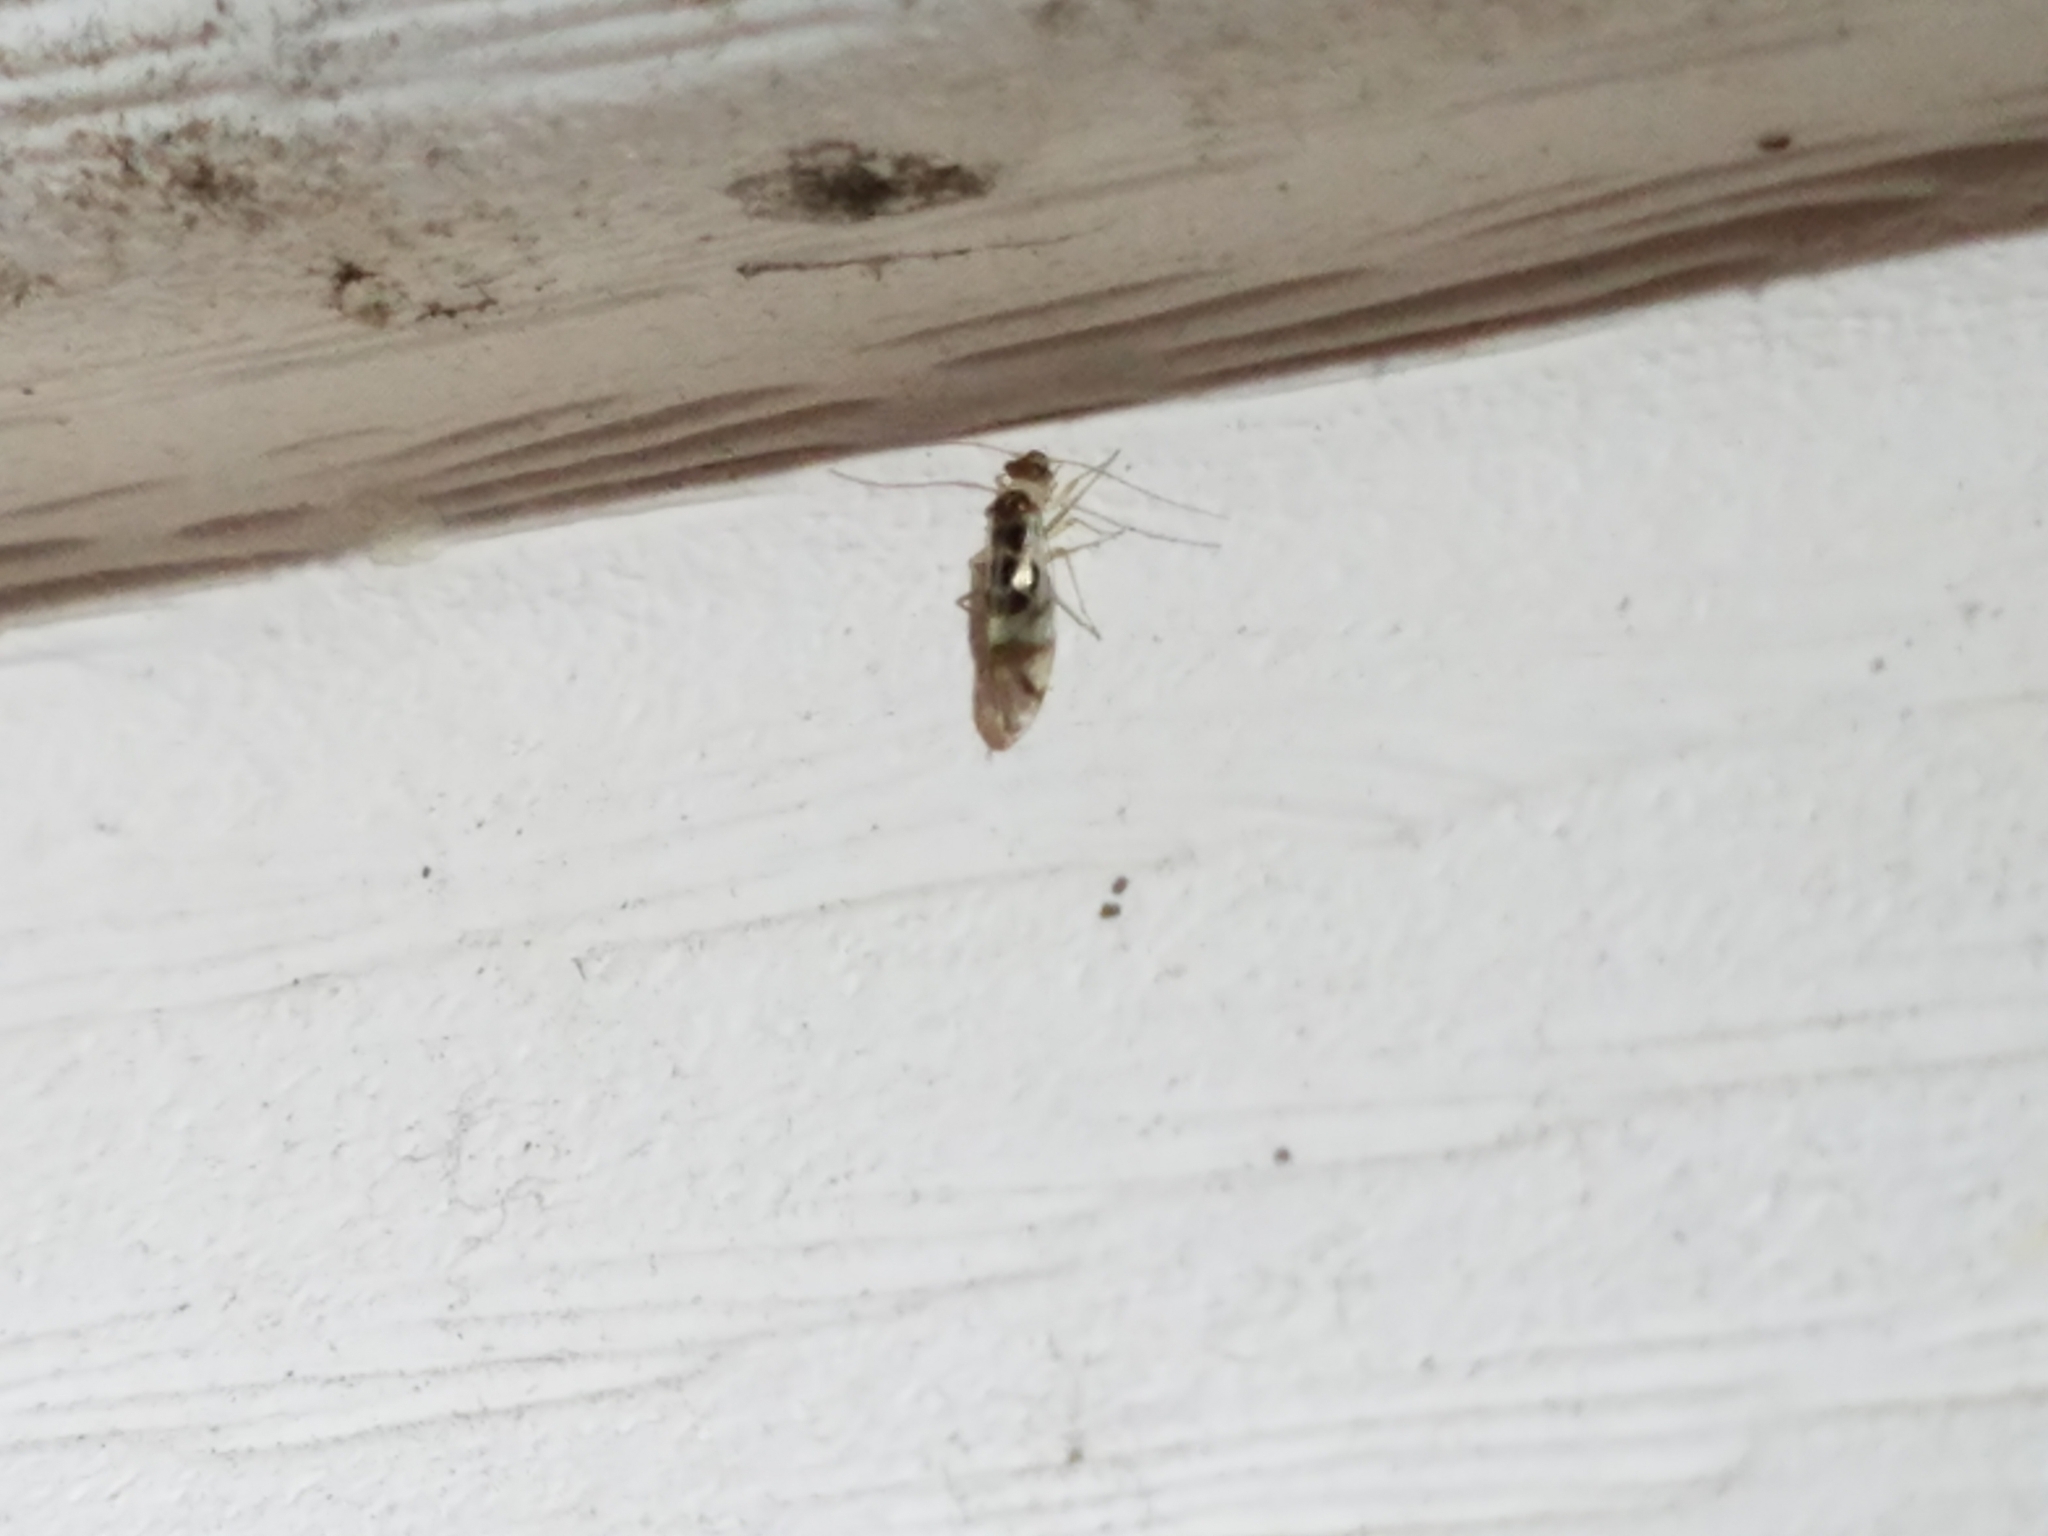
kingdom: Animalia
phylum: Arthropoda
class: Insecta
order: Psocodea
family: Stenopsocidae
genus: Graphopsocus
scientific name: Graphopsocus cruciatus
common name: Lizard bark louse
